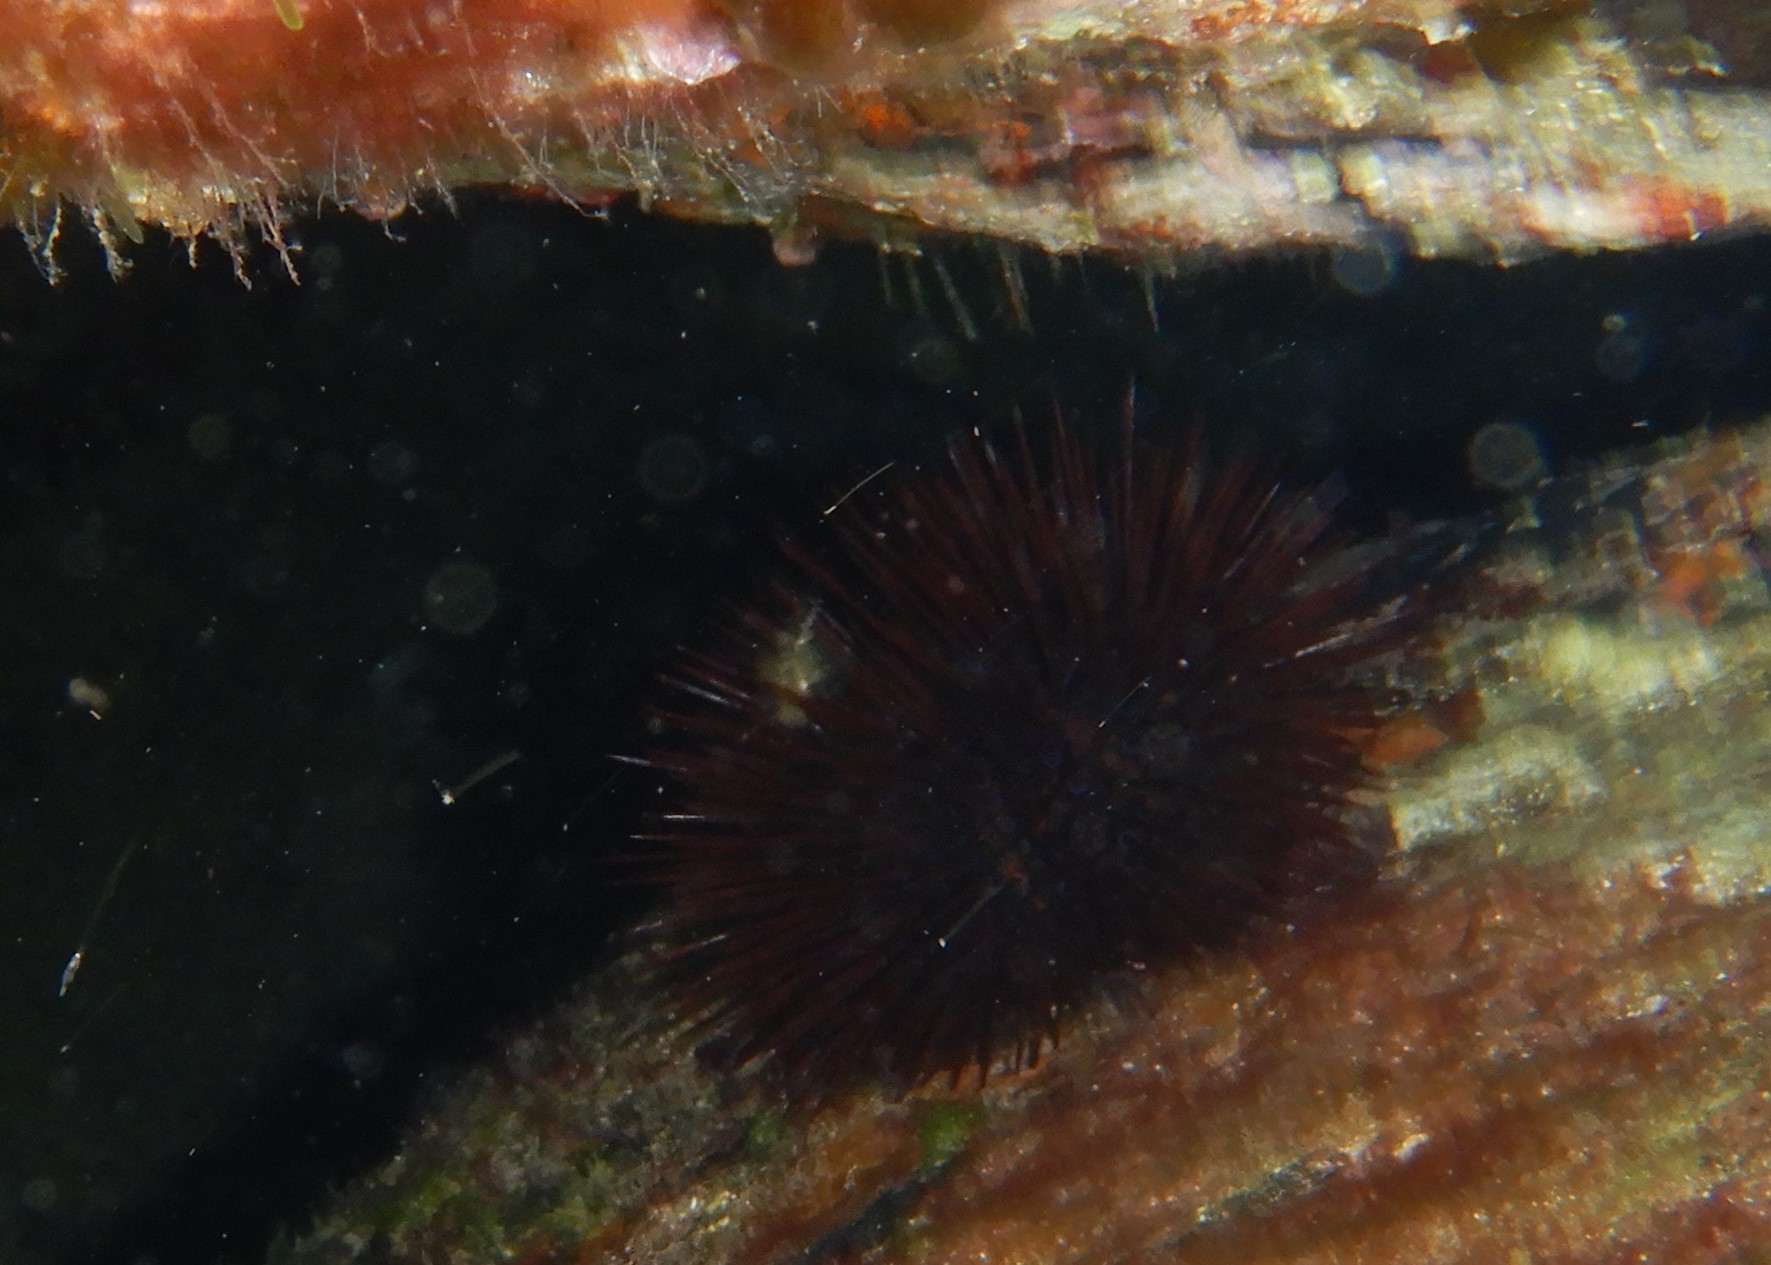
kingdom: Animalia
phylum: Echinodermata
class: Echinoidea
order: Camarodonta
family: Parechinidae
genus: Paracentrotus
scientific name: Paracentrotus lividus
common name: Purple sea urchin
